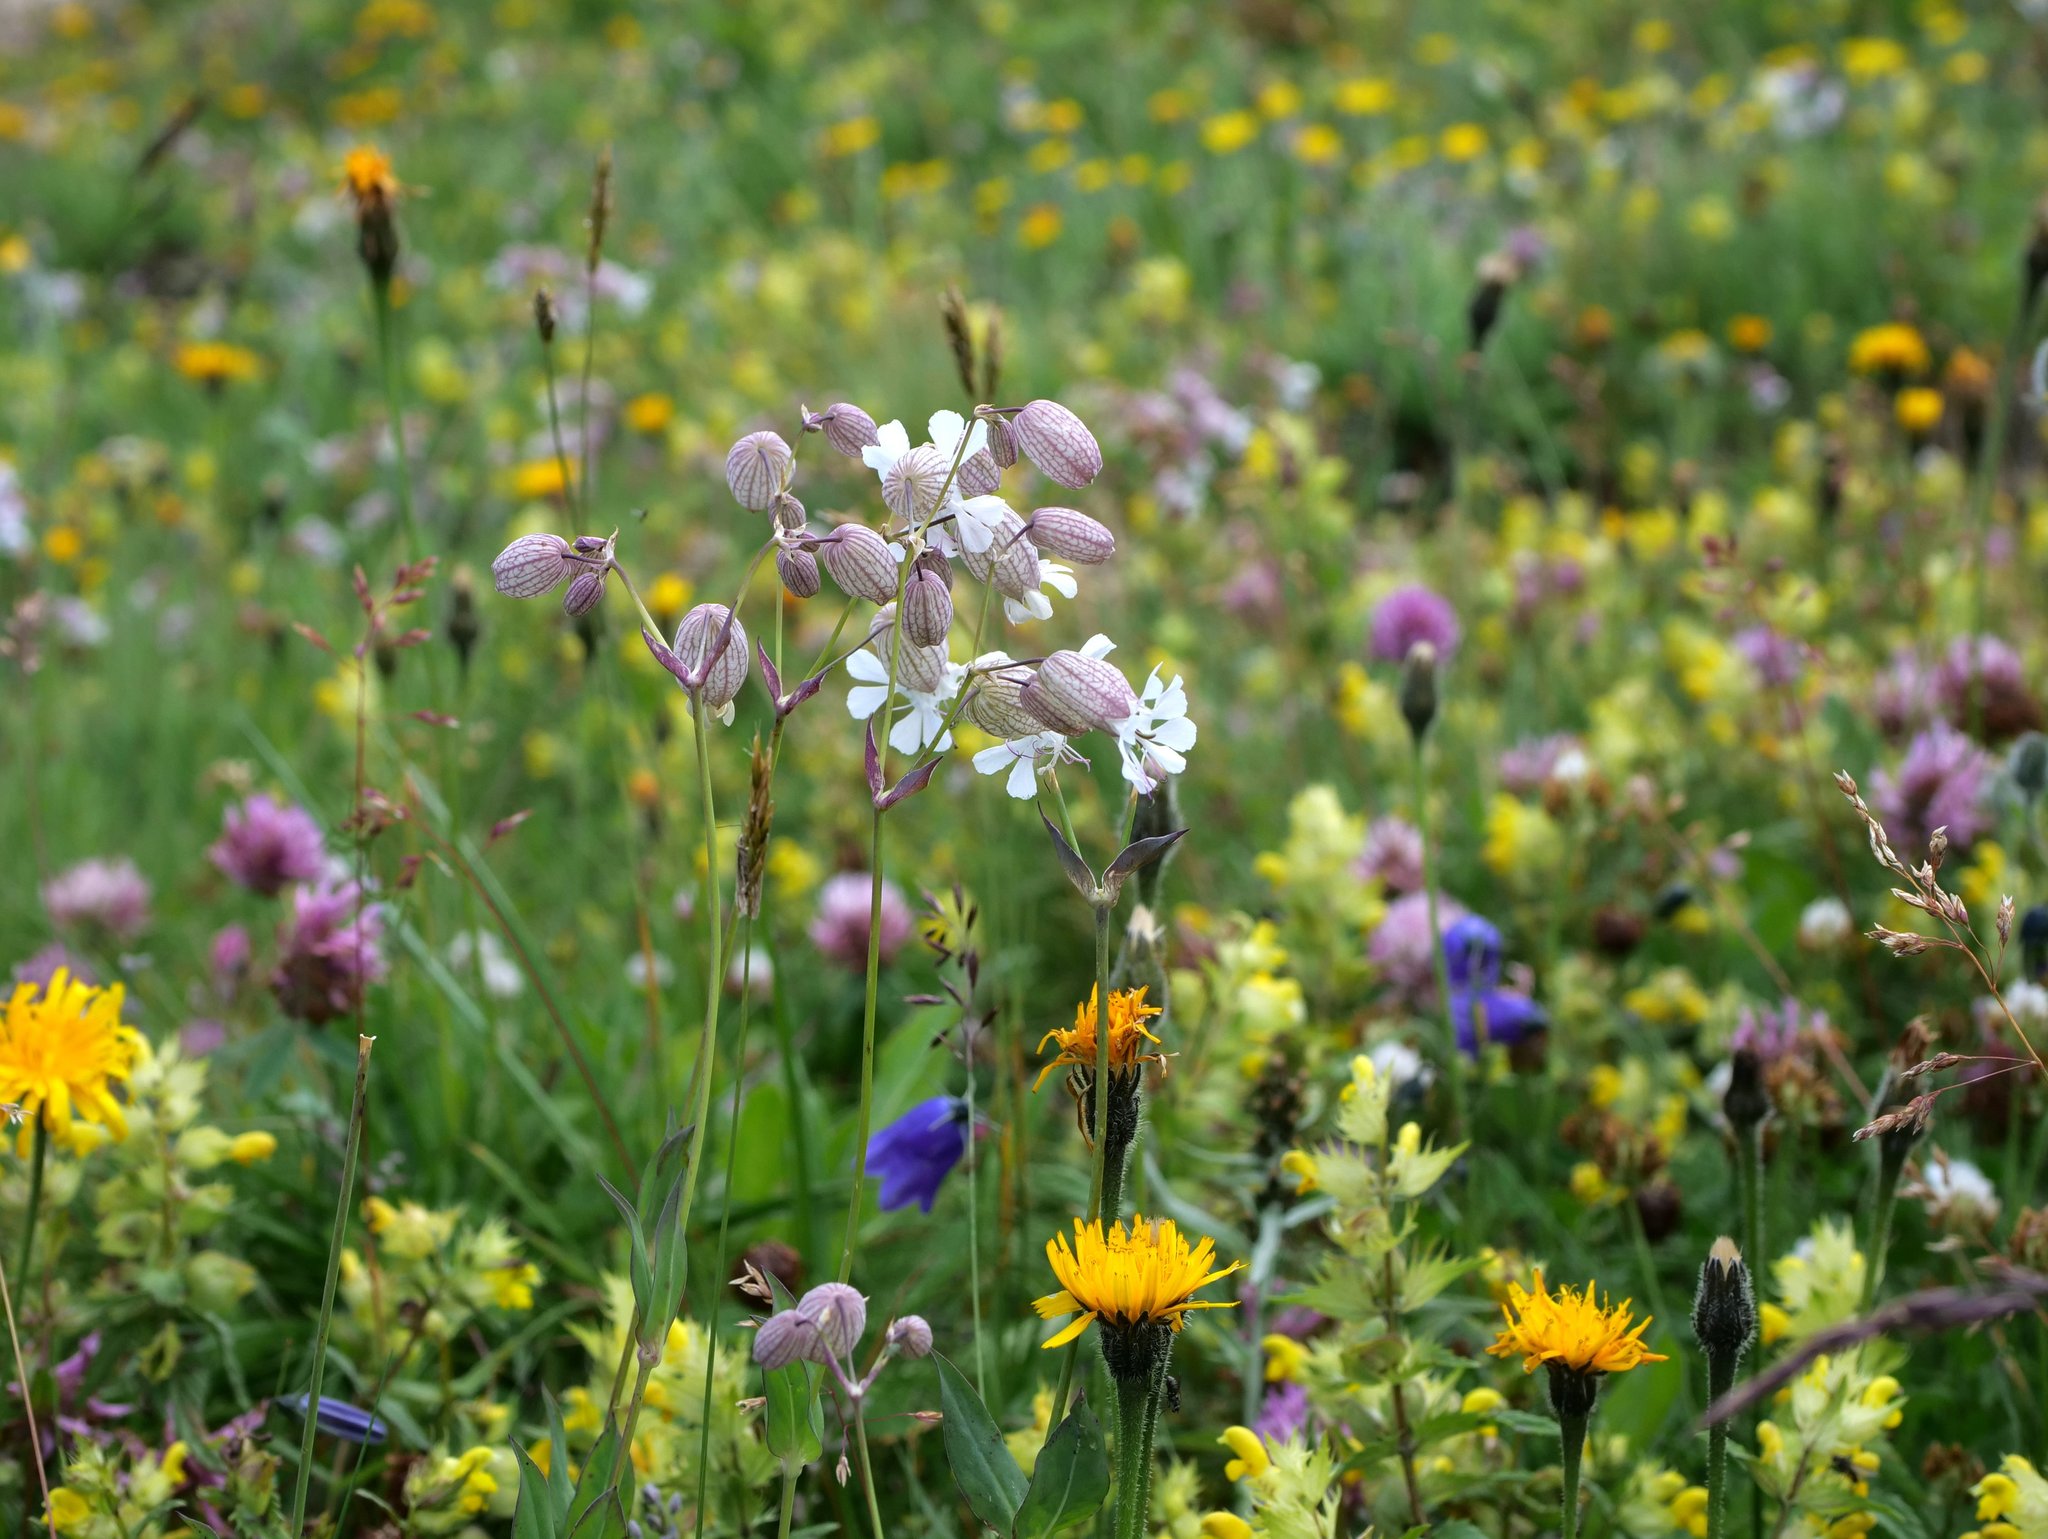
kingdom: Plantae
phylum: Tracheophyta
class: Magnoliopsida
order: Caryophyllales
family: Caryophyllaceae
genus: Silene
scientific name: Silene vulgaris
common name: Bladder campion
